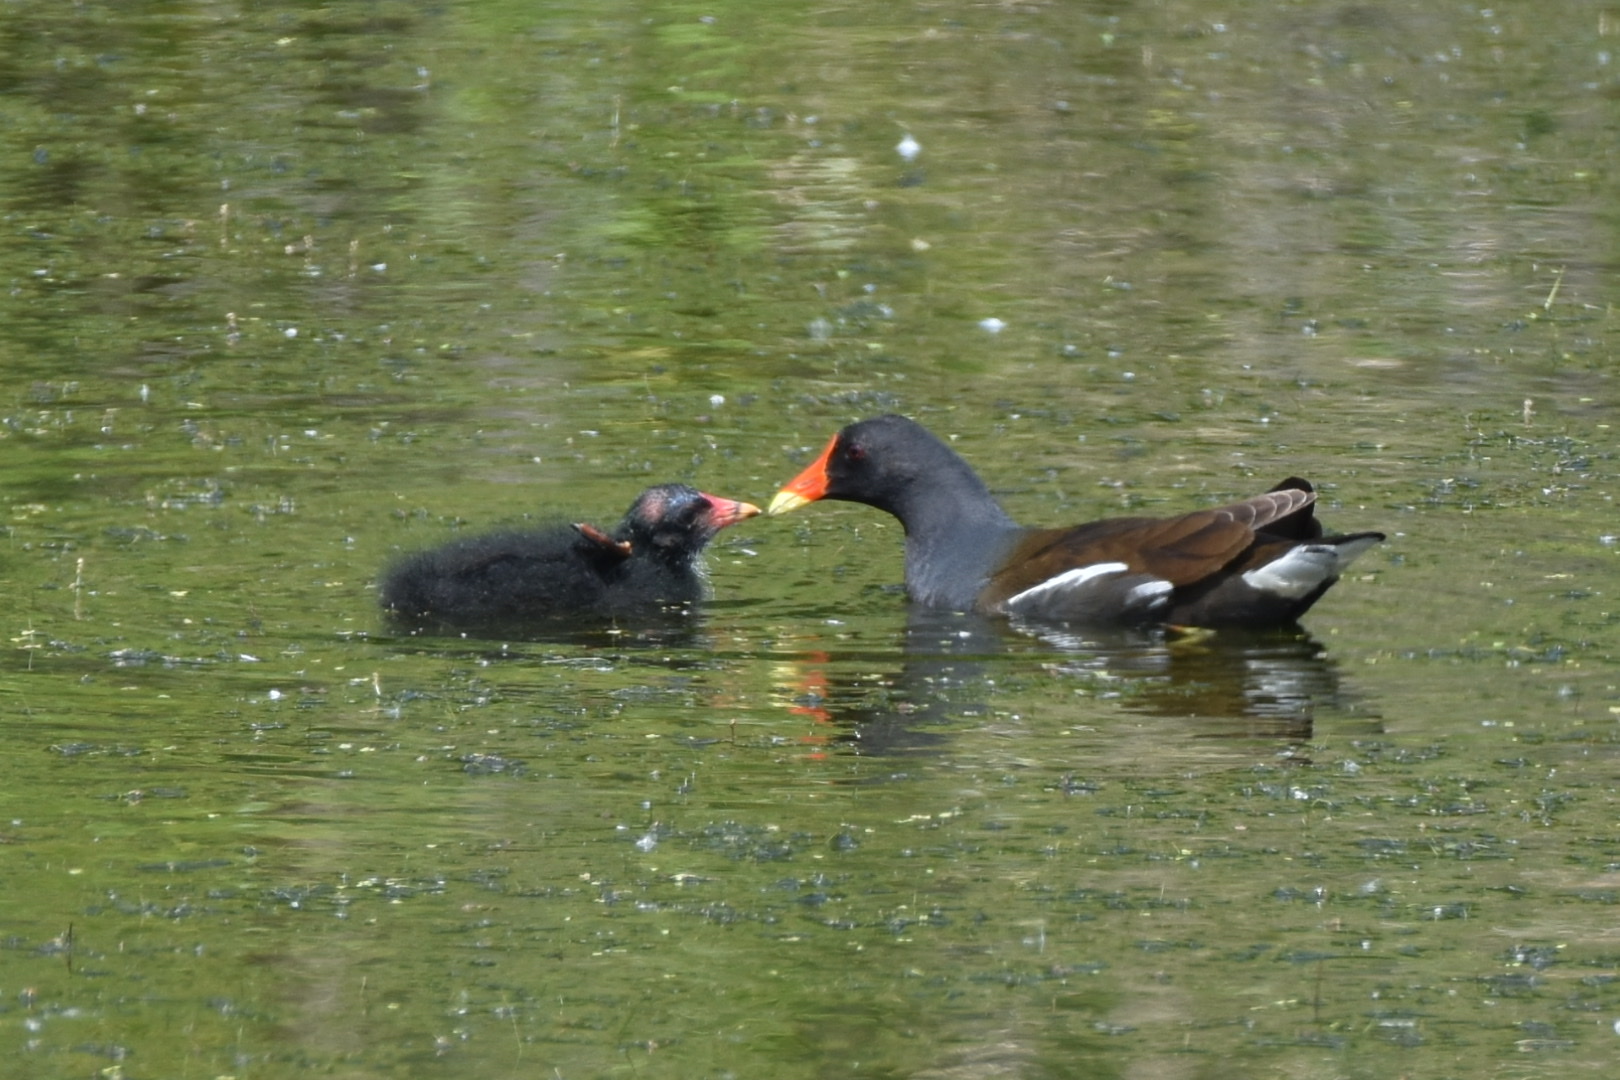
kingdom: Animalia
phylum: Chordata
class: Aves
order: Gruiformes
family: Rallidae
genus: Gallinula
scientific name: Gallinula chloropus
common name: Common moorhen
